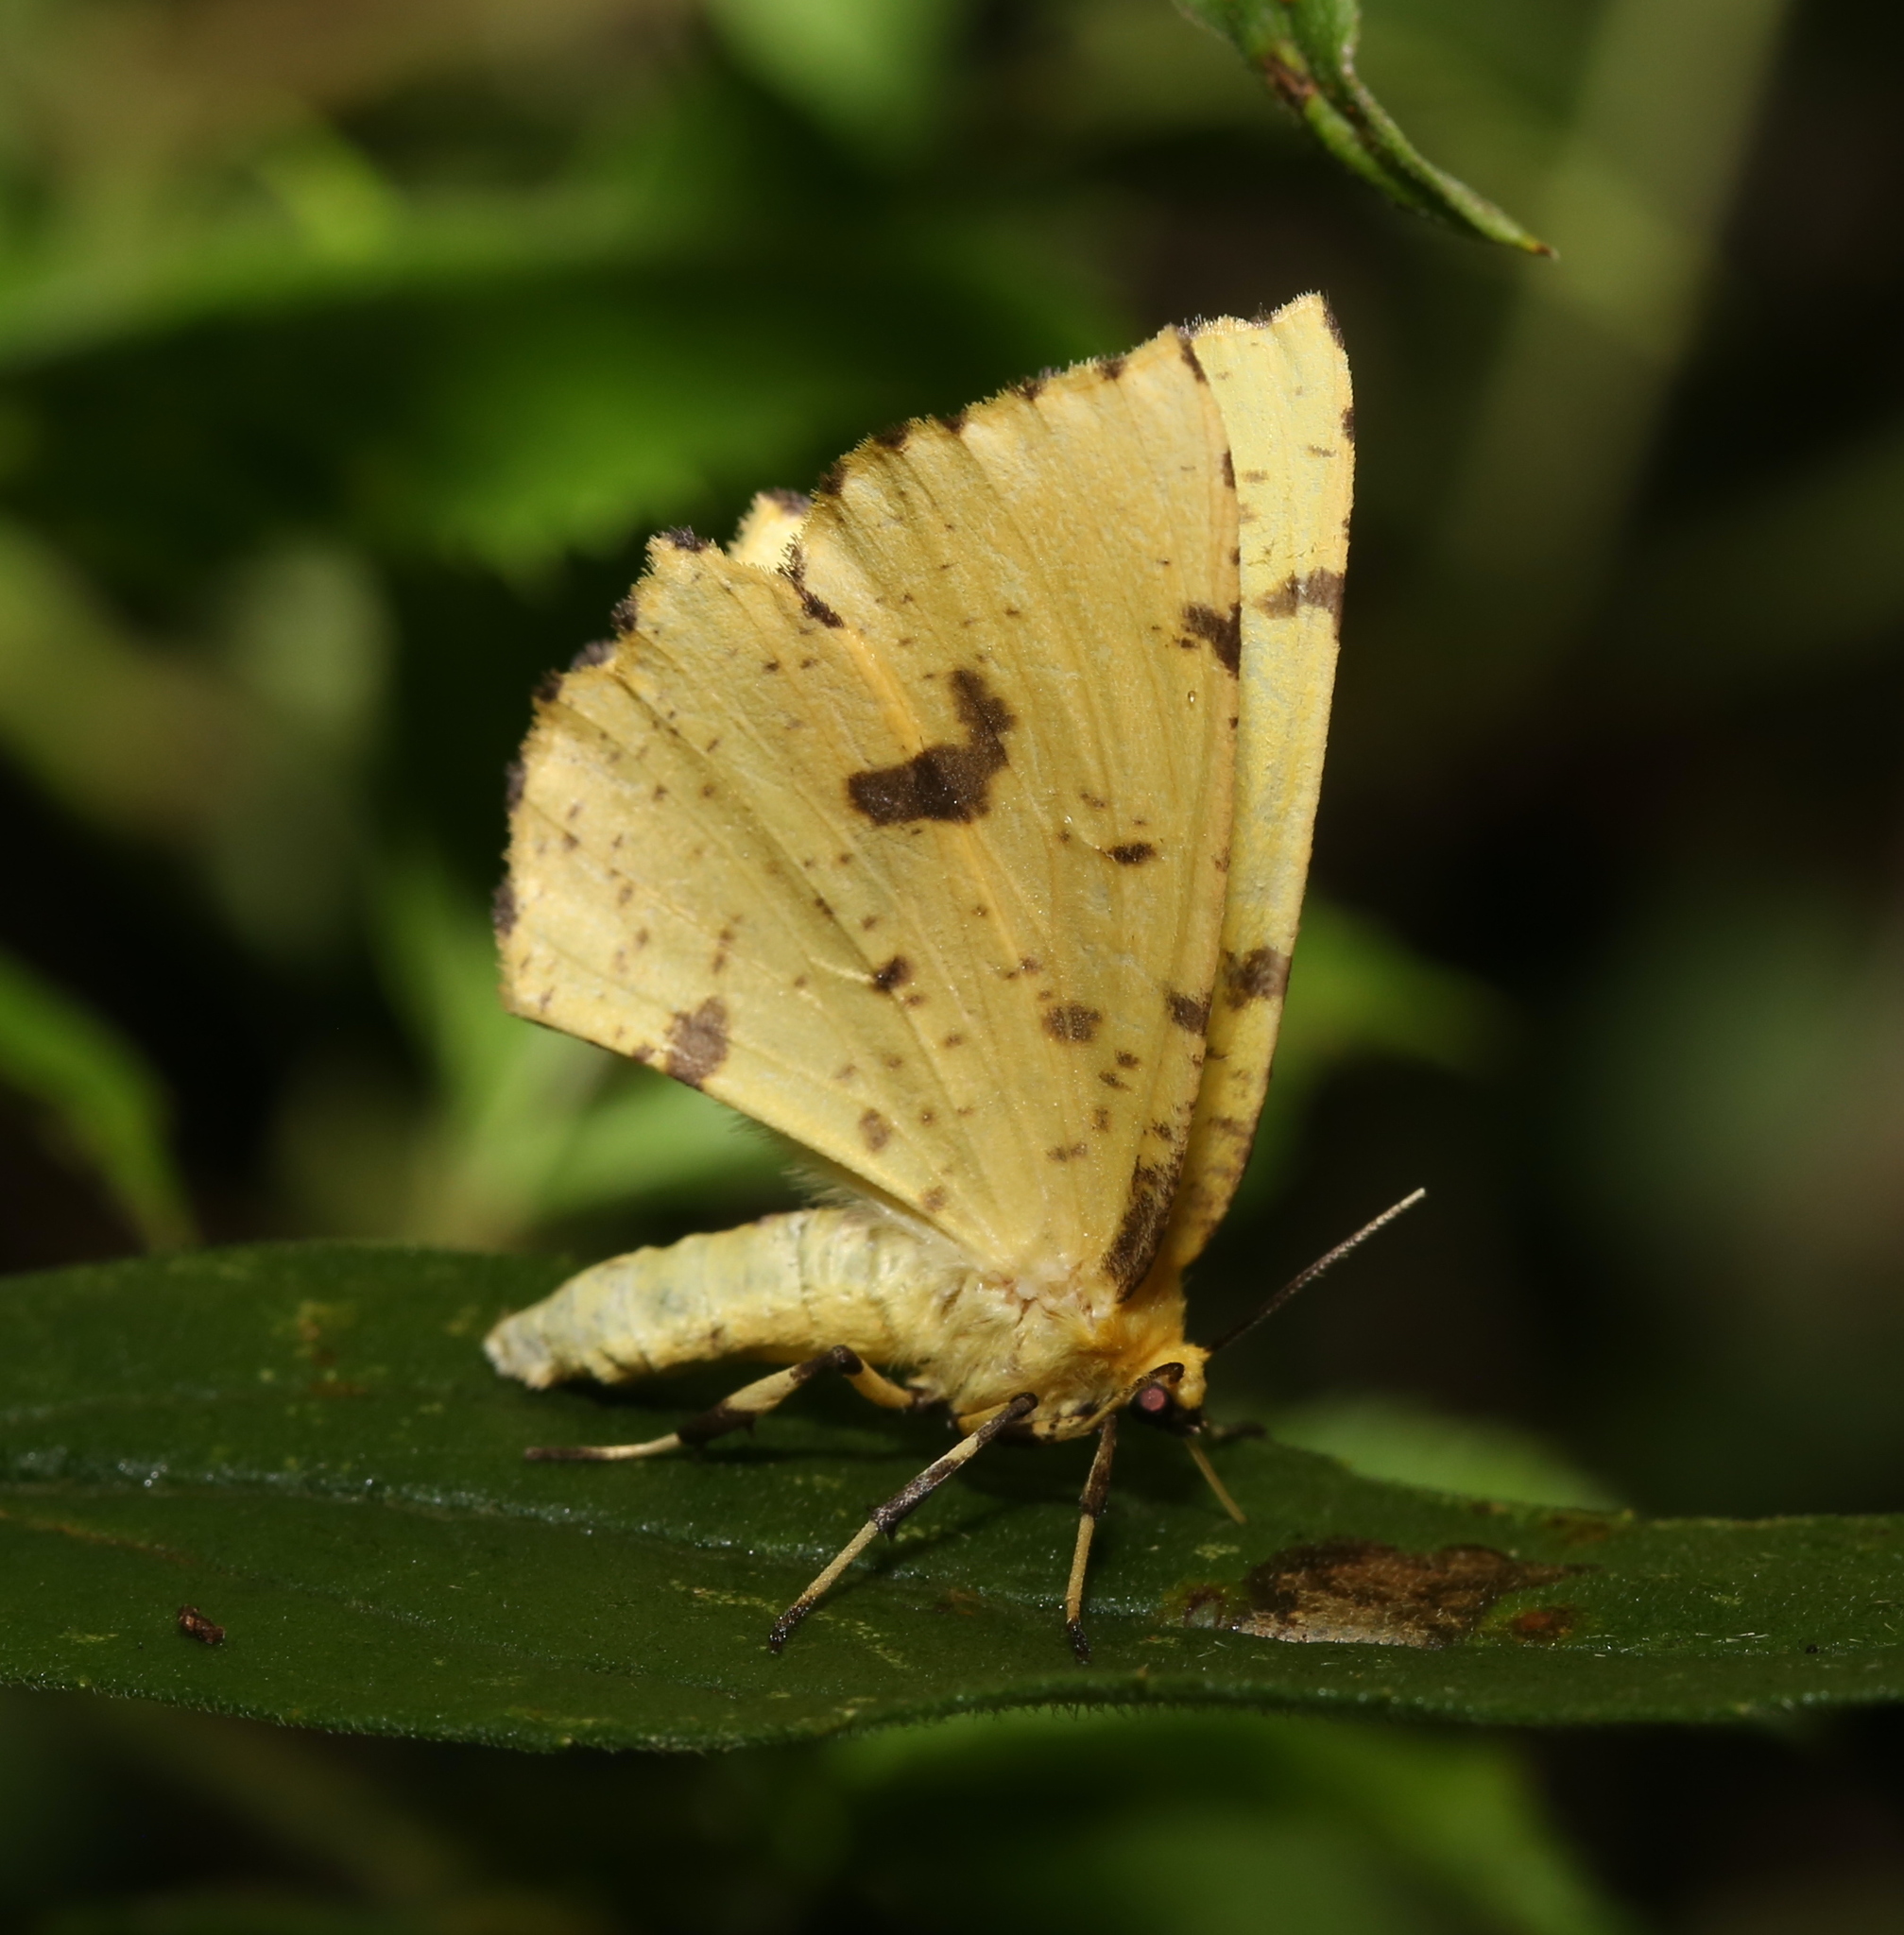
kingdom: Animalia
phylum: Arthropoda
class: Insecta
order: Lepidoptera
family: Geometridae
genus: Xanthotype
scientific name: Xanthotype
